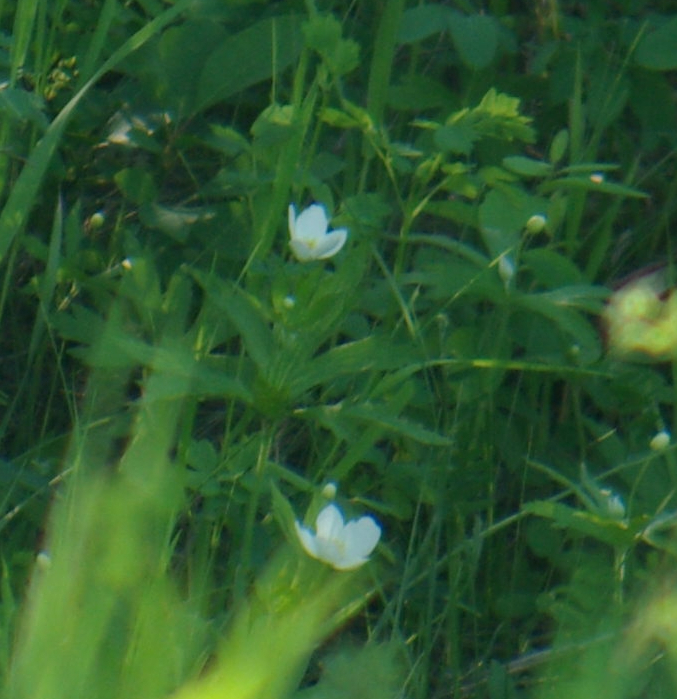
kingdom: Plantae
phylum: Tracheophyta
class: Magnoliopsida
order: Ranunculales
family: Ranunculaceae
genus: Anemonastrum
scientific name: Anemonastrum canadense
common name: Canada anemone
